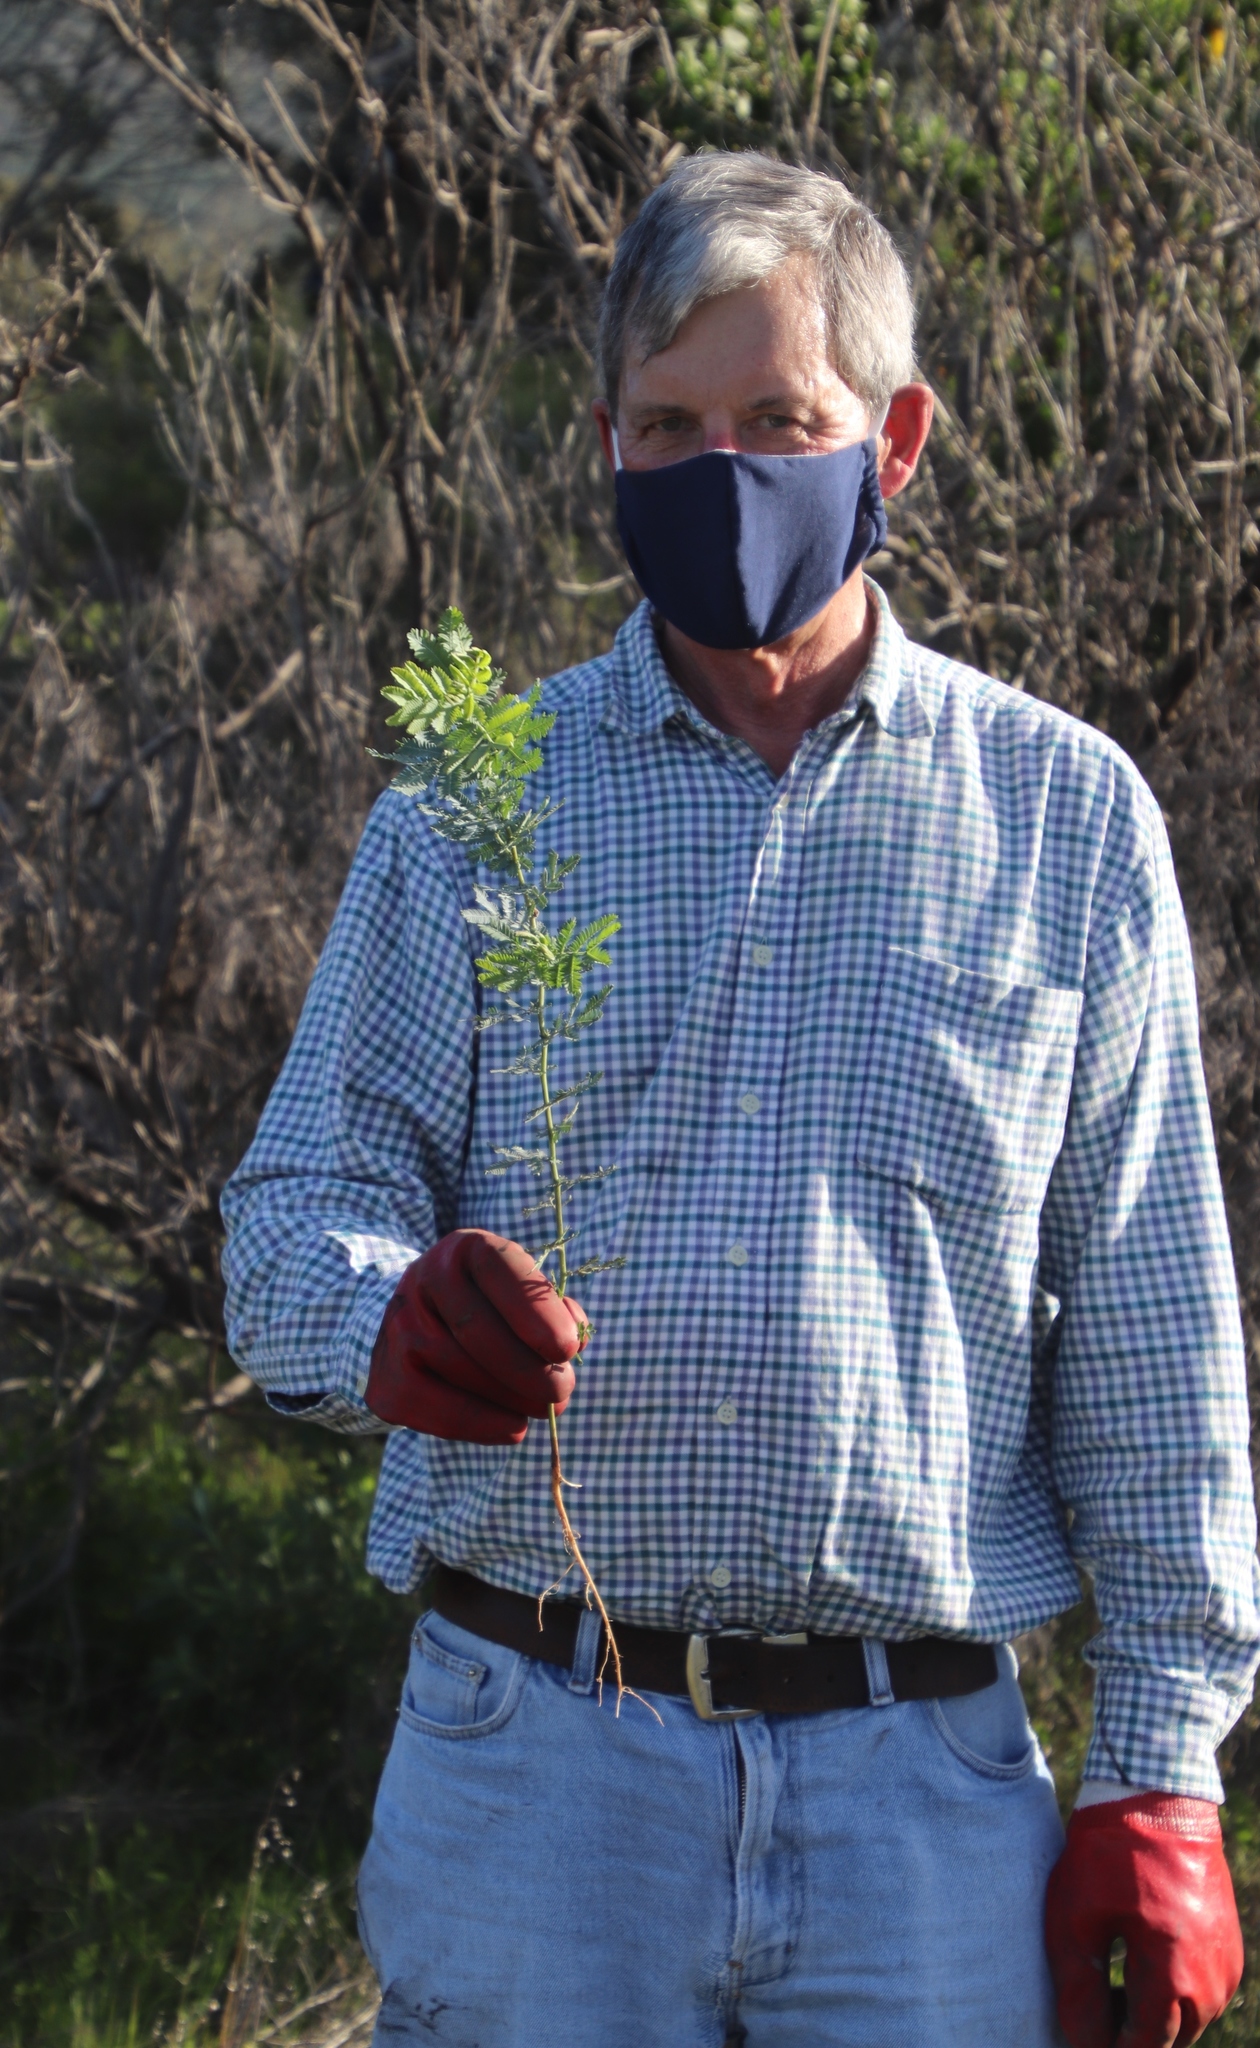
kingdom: Plantae
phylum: Tracheophyta
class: Magnoliopsida
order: Fabales
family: Fabaceae
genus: Acacia
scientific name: Acacia baileyana
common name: Cootamundra wattle
